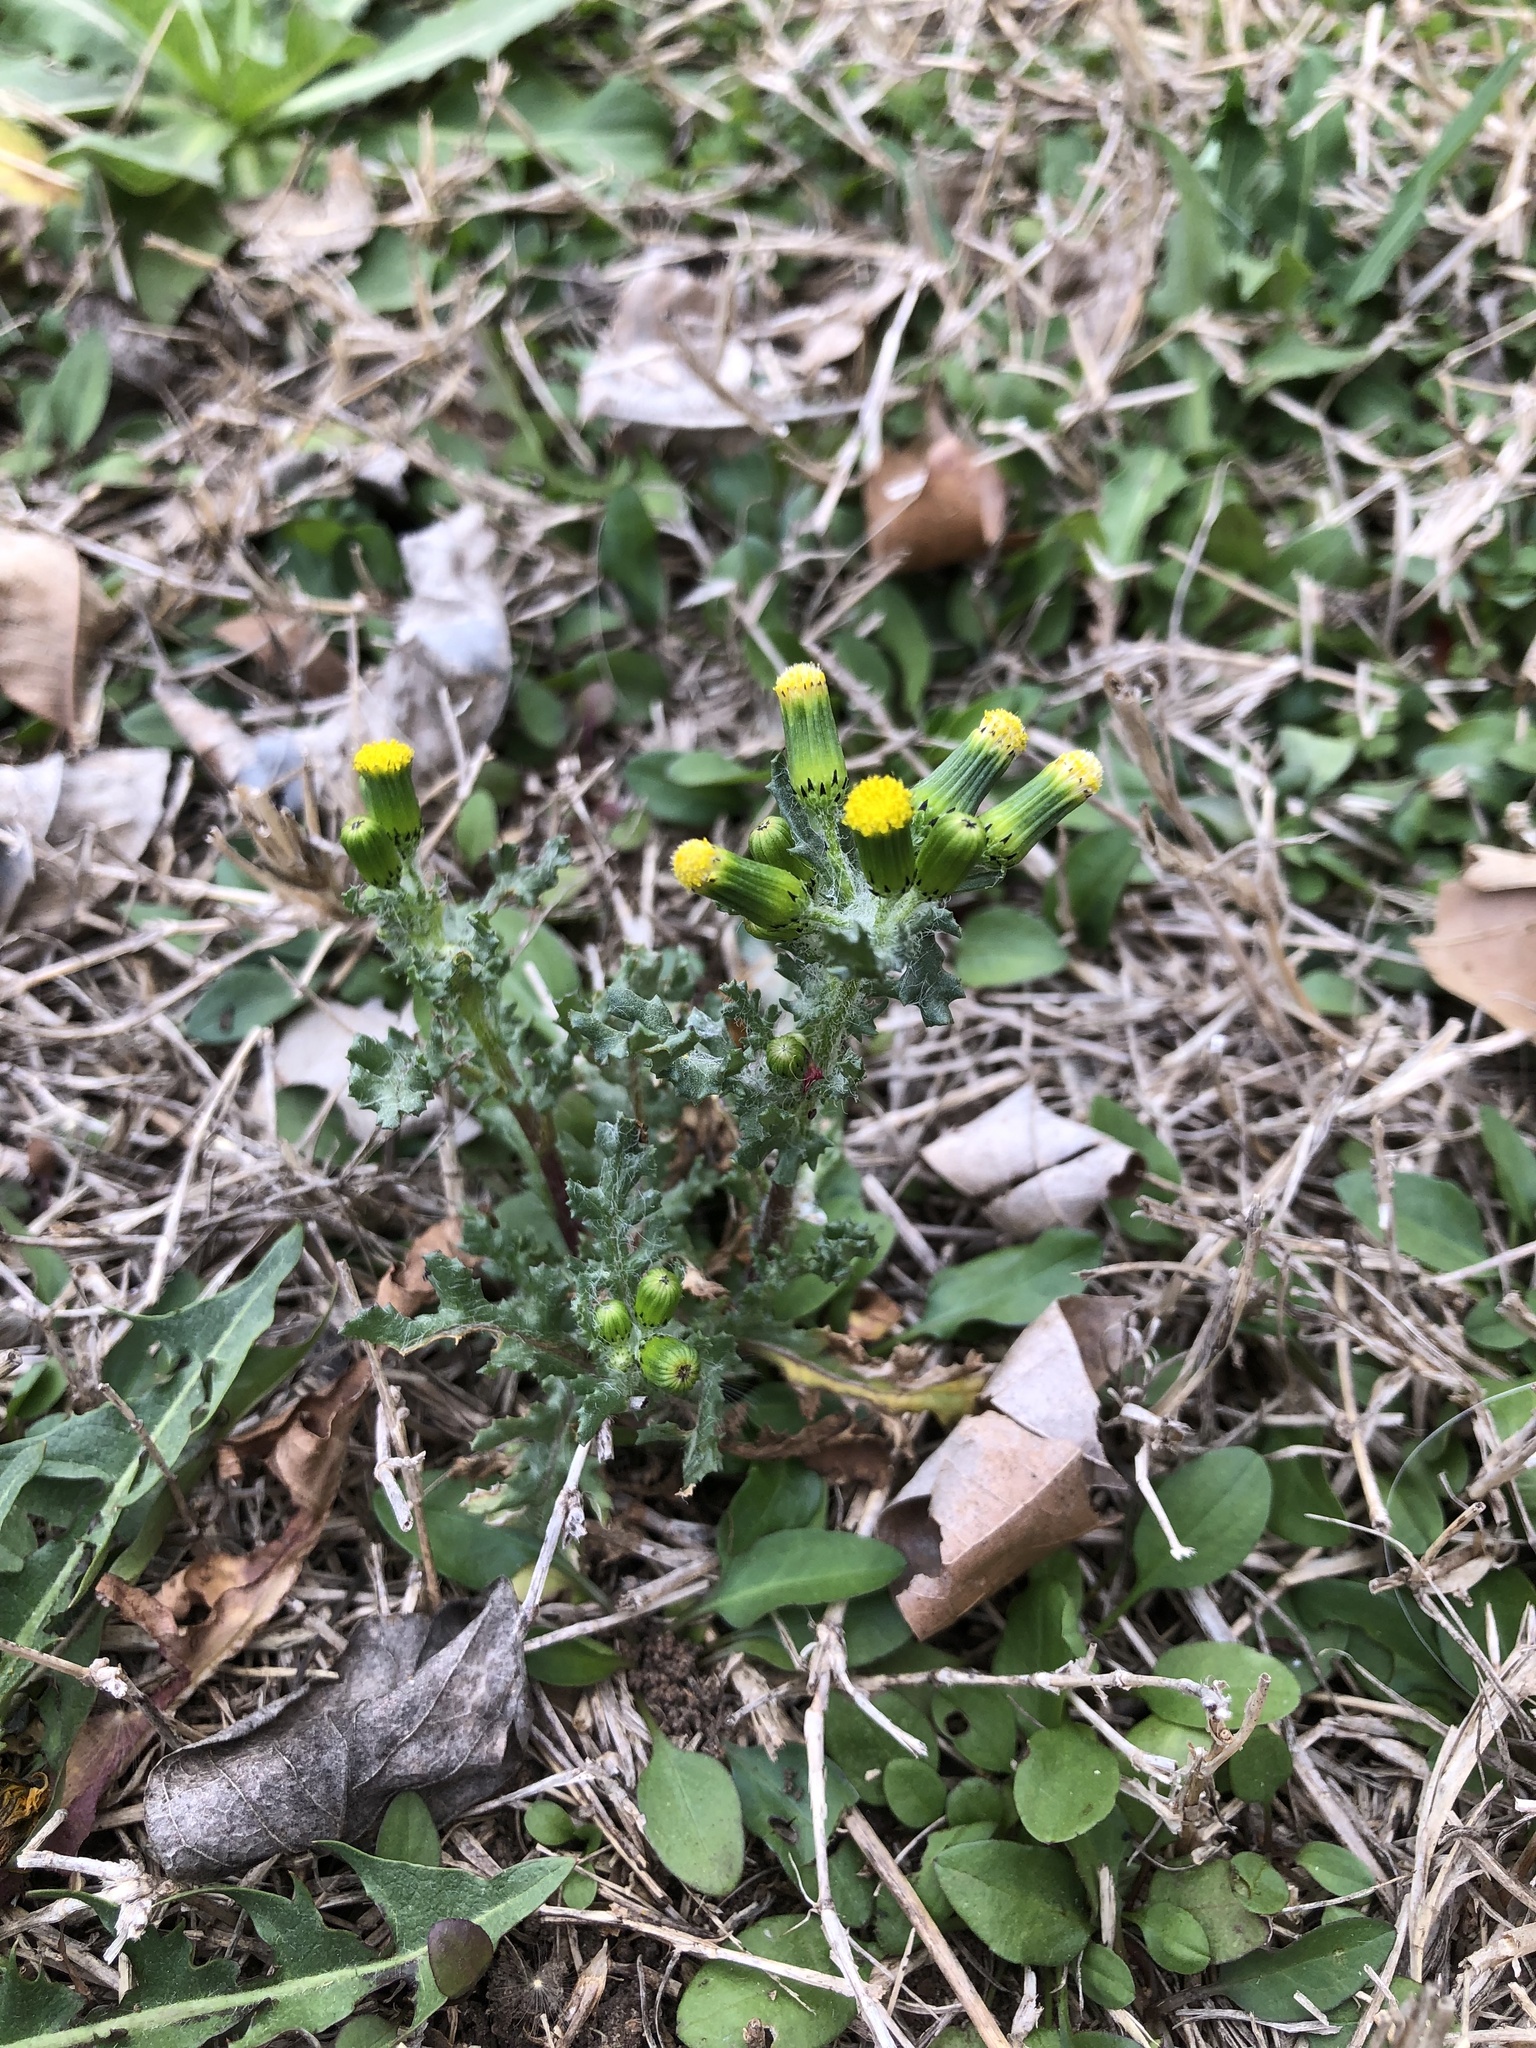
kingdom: Plantae
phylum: Tracheophyta
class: Magnoliopsida
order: Asterales
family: Asteraceae
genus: Senecio
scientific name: Senecio vulgaris
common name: Old-man-in-the-spring
